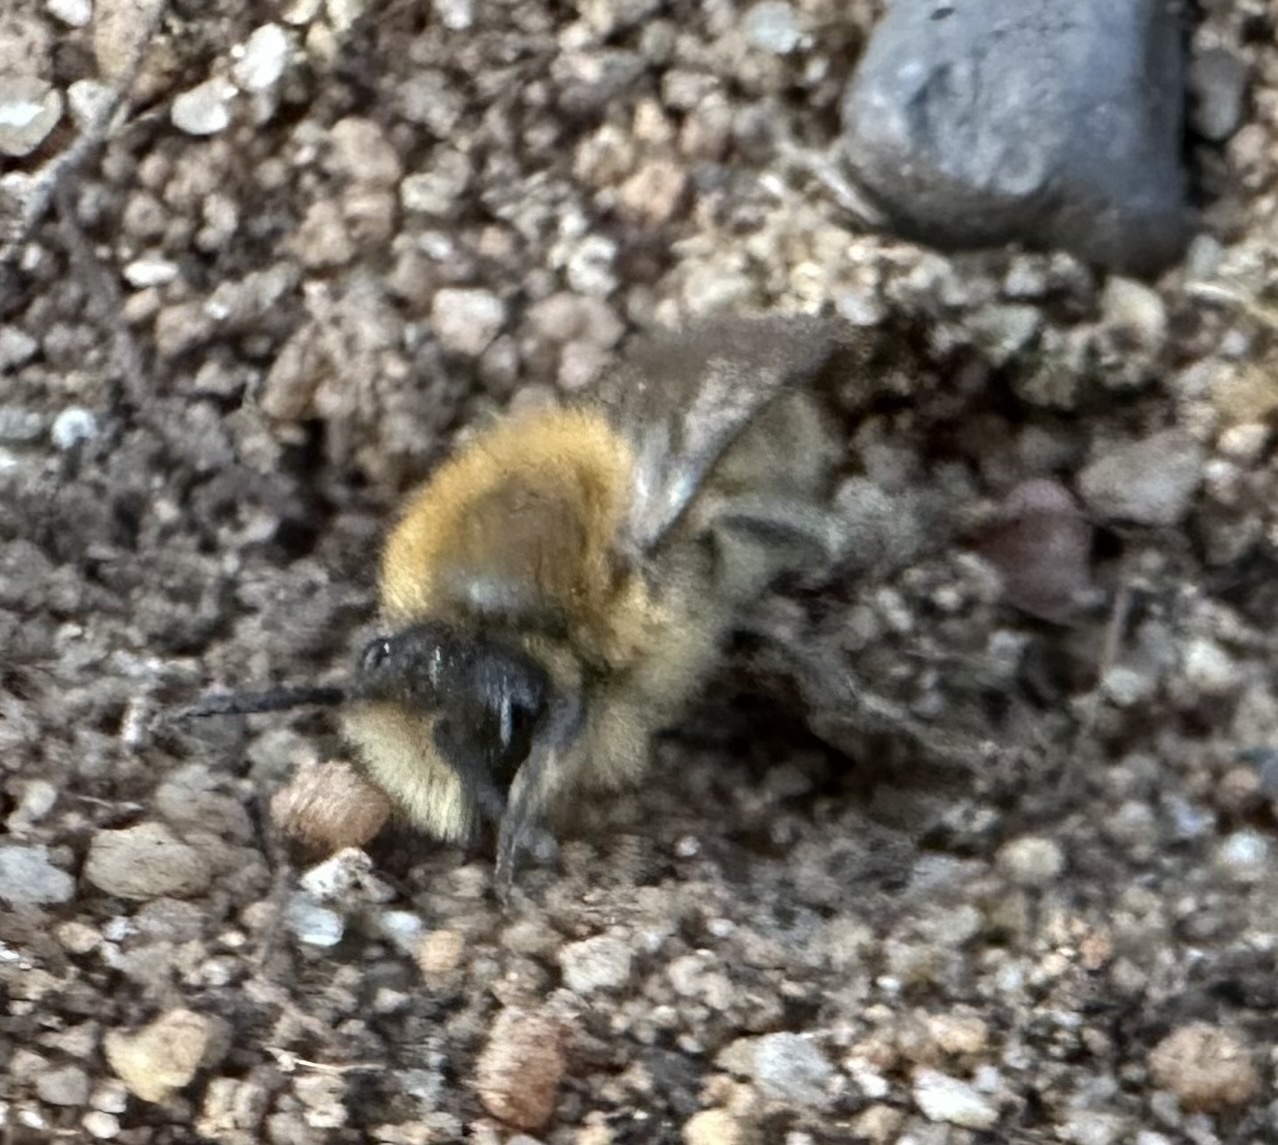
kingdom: Animalia
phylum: Arthropoda
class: Insecta
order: Hymenoptera
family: Colletidae
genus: Colletes
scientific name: Colletes cunicularius
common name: Early colletes
